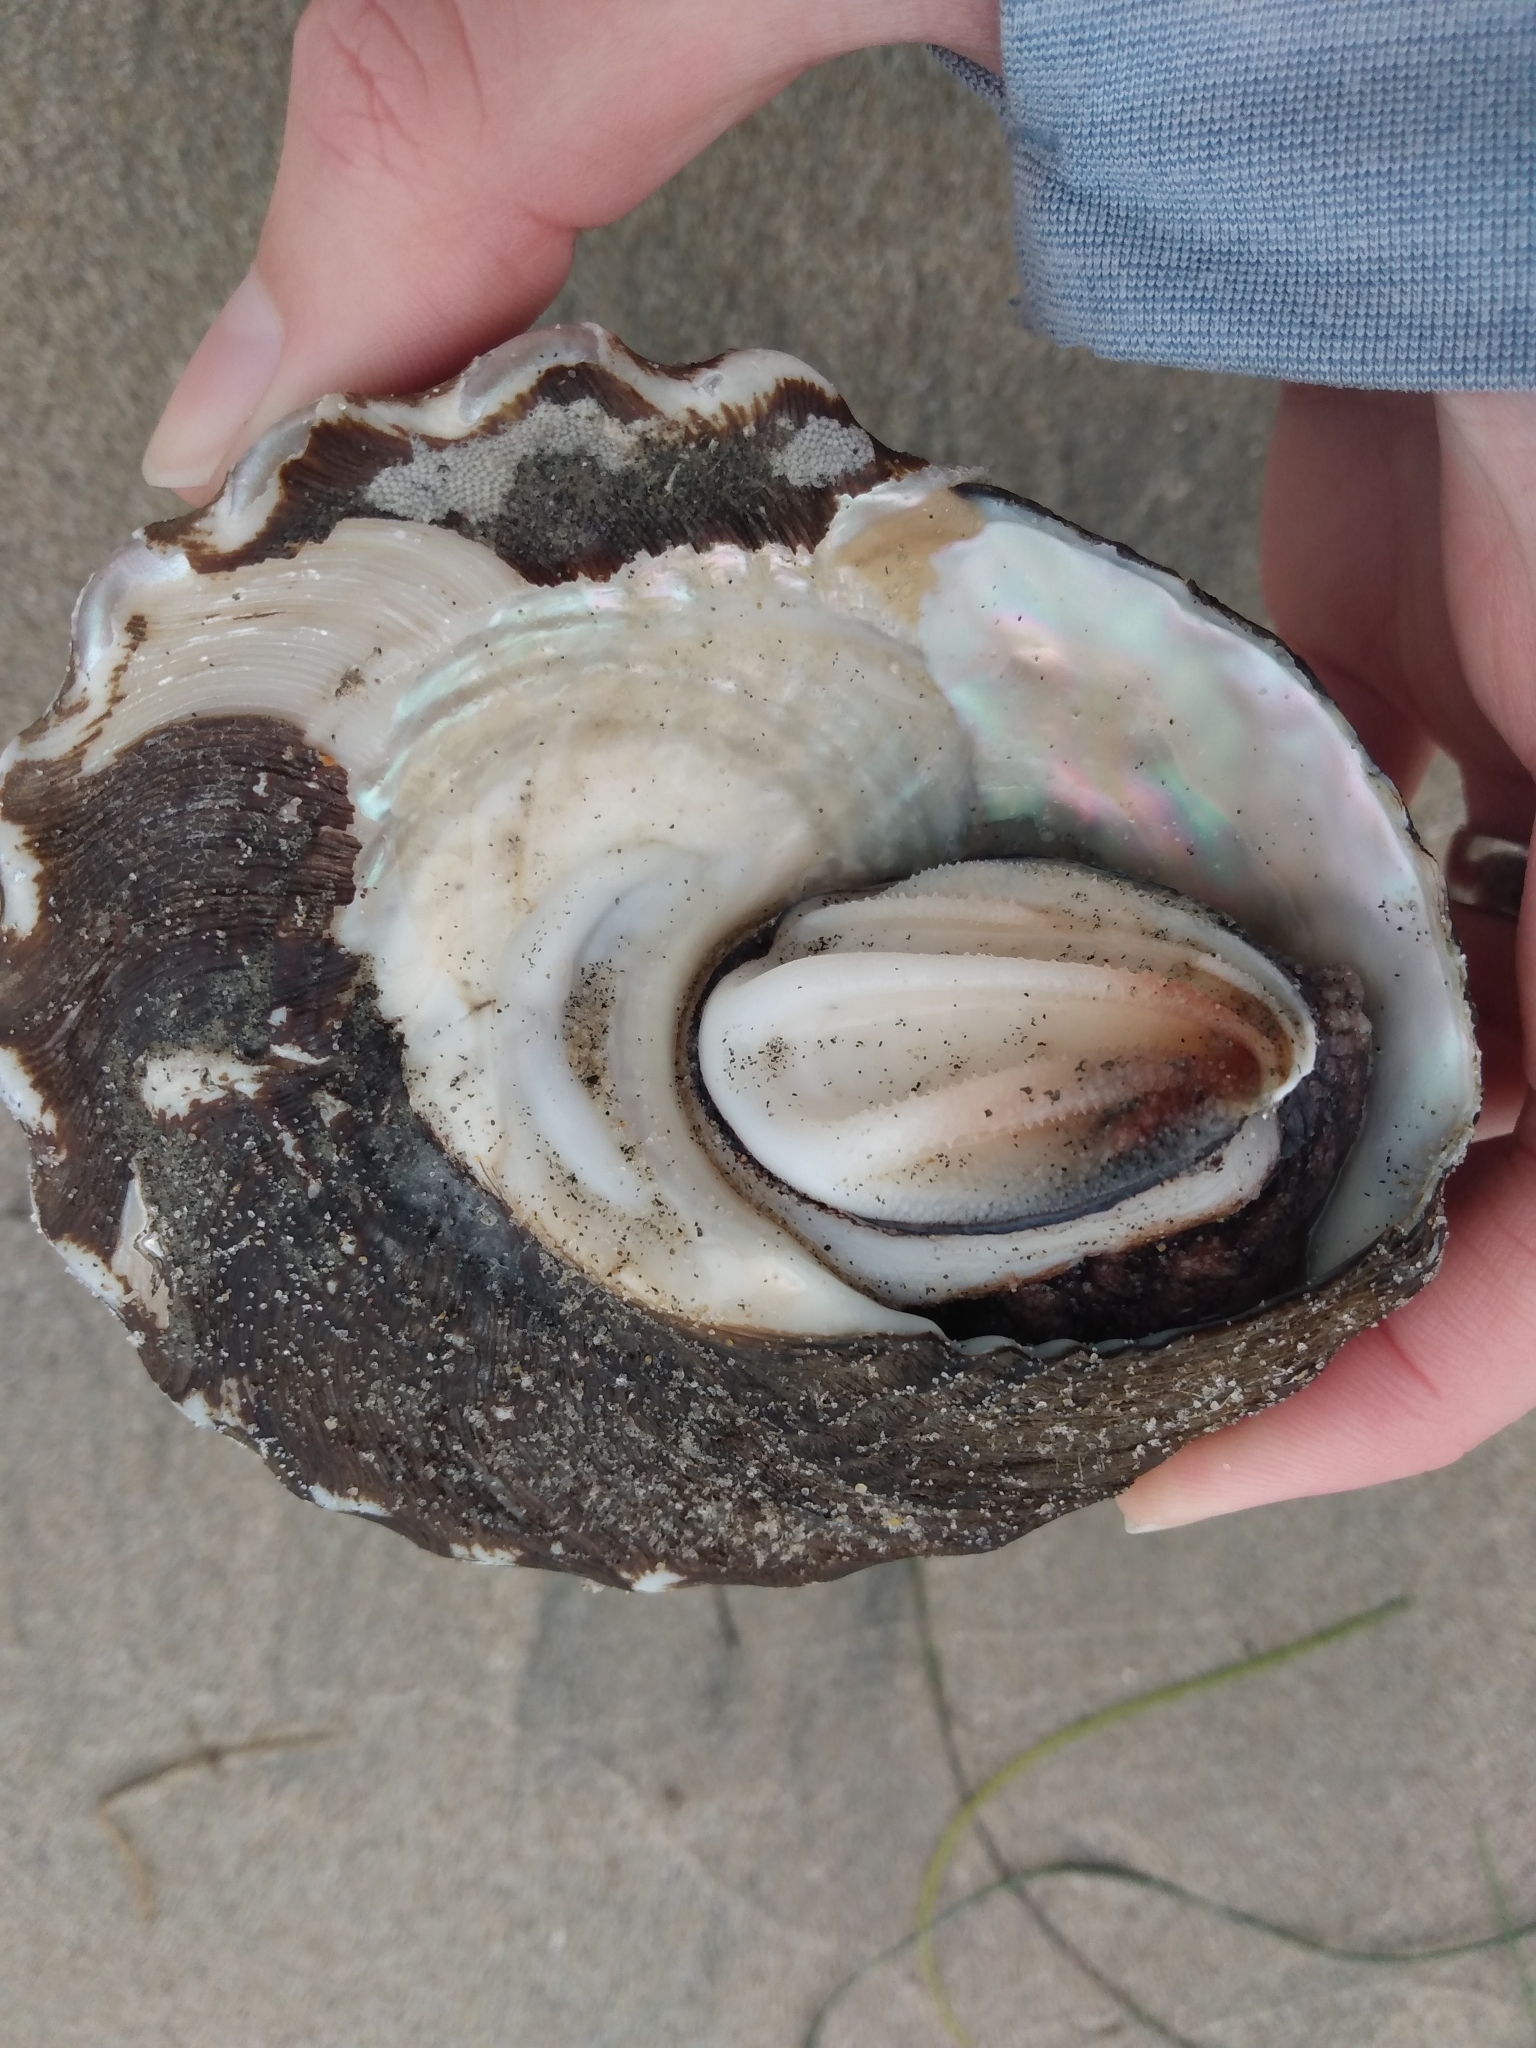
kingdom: Animalia
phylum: Mollusca
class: Gastropoda
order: Trochida
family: Turbinidae
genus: Megastraea
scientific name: Megastraea undosa
